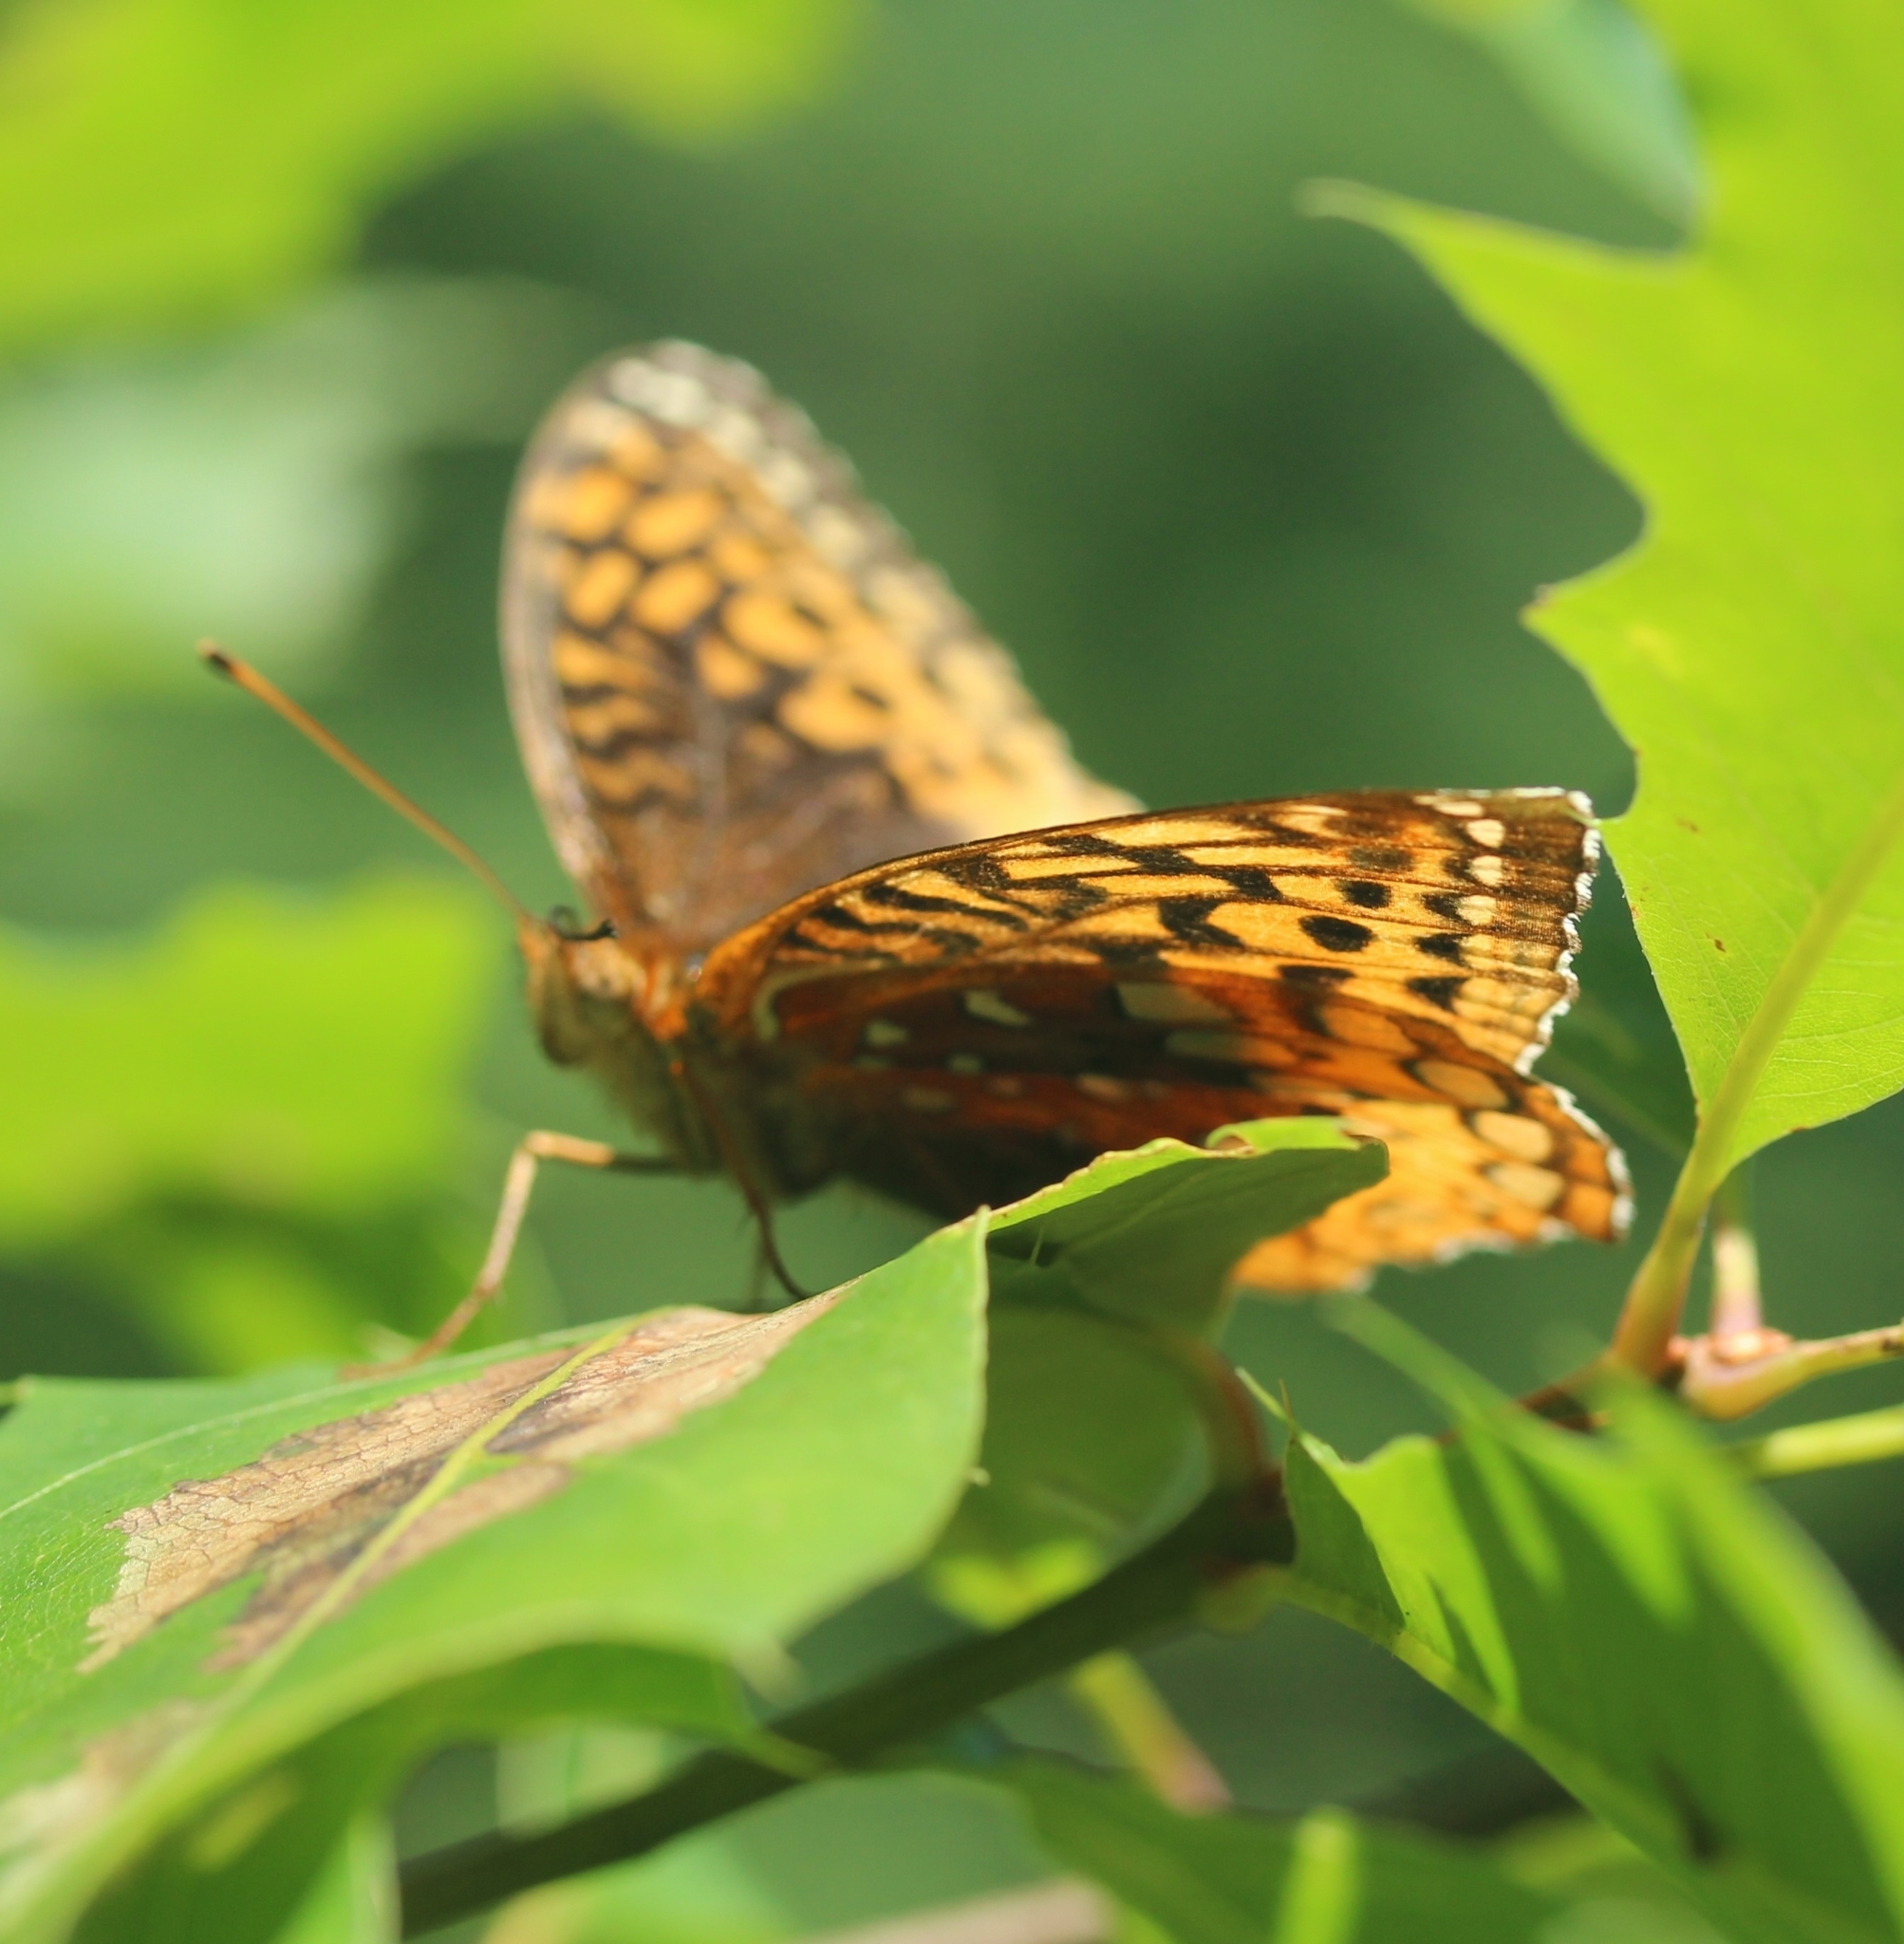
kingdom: Animalia
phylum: Arthropoda
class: Insecta
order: Lepidoptera
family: Nymphalidae
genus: Speyeria
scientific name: Speyeria cybele
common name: Great spangled fritillary
